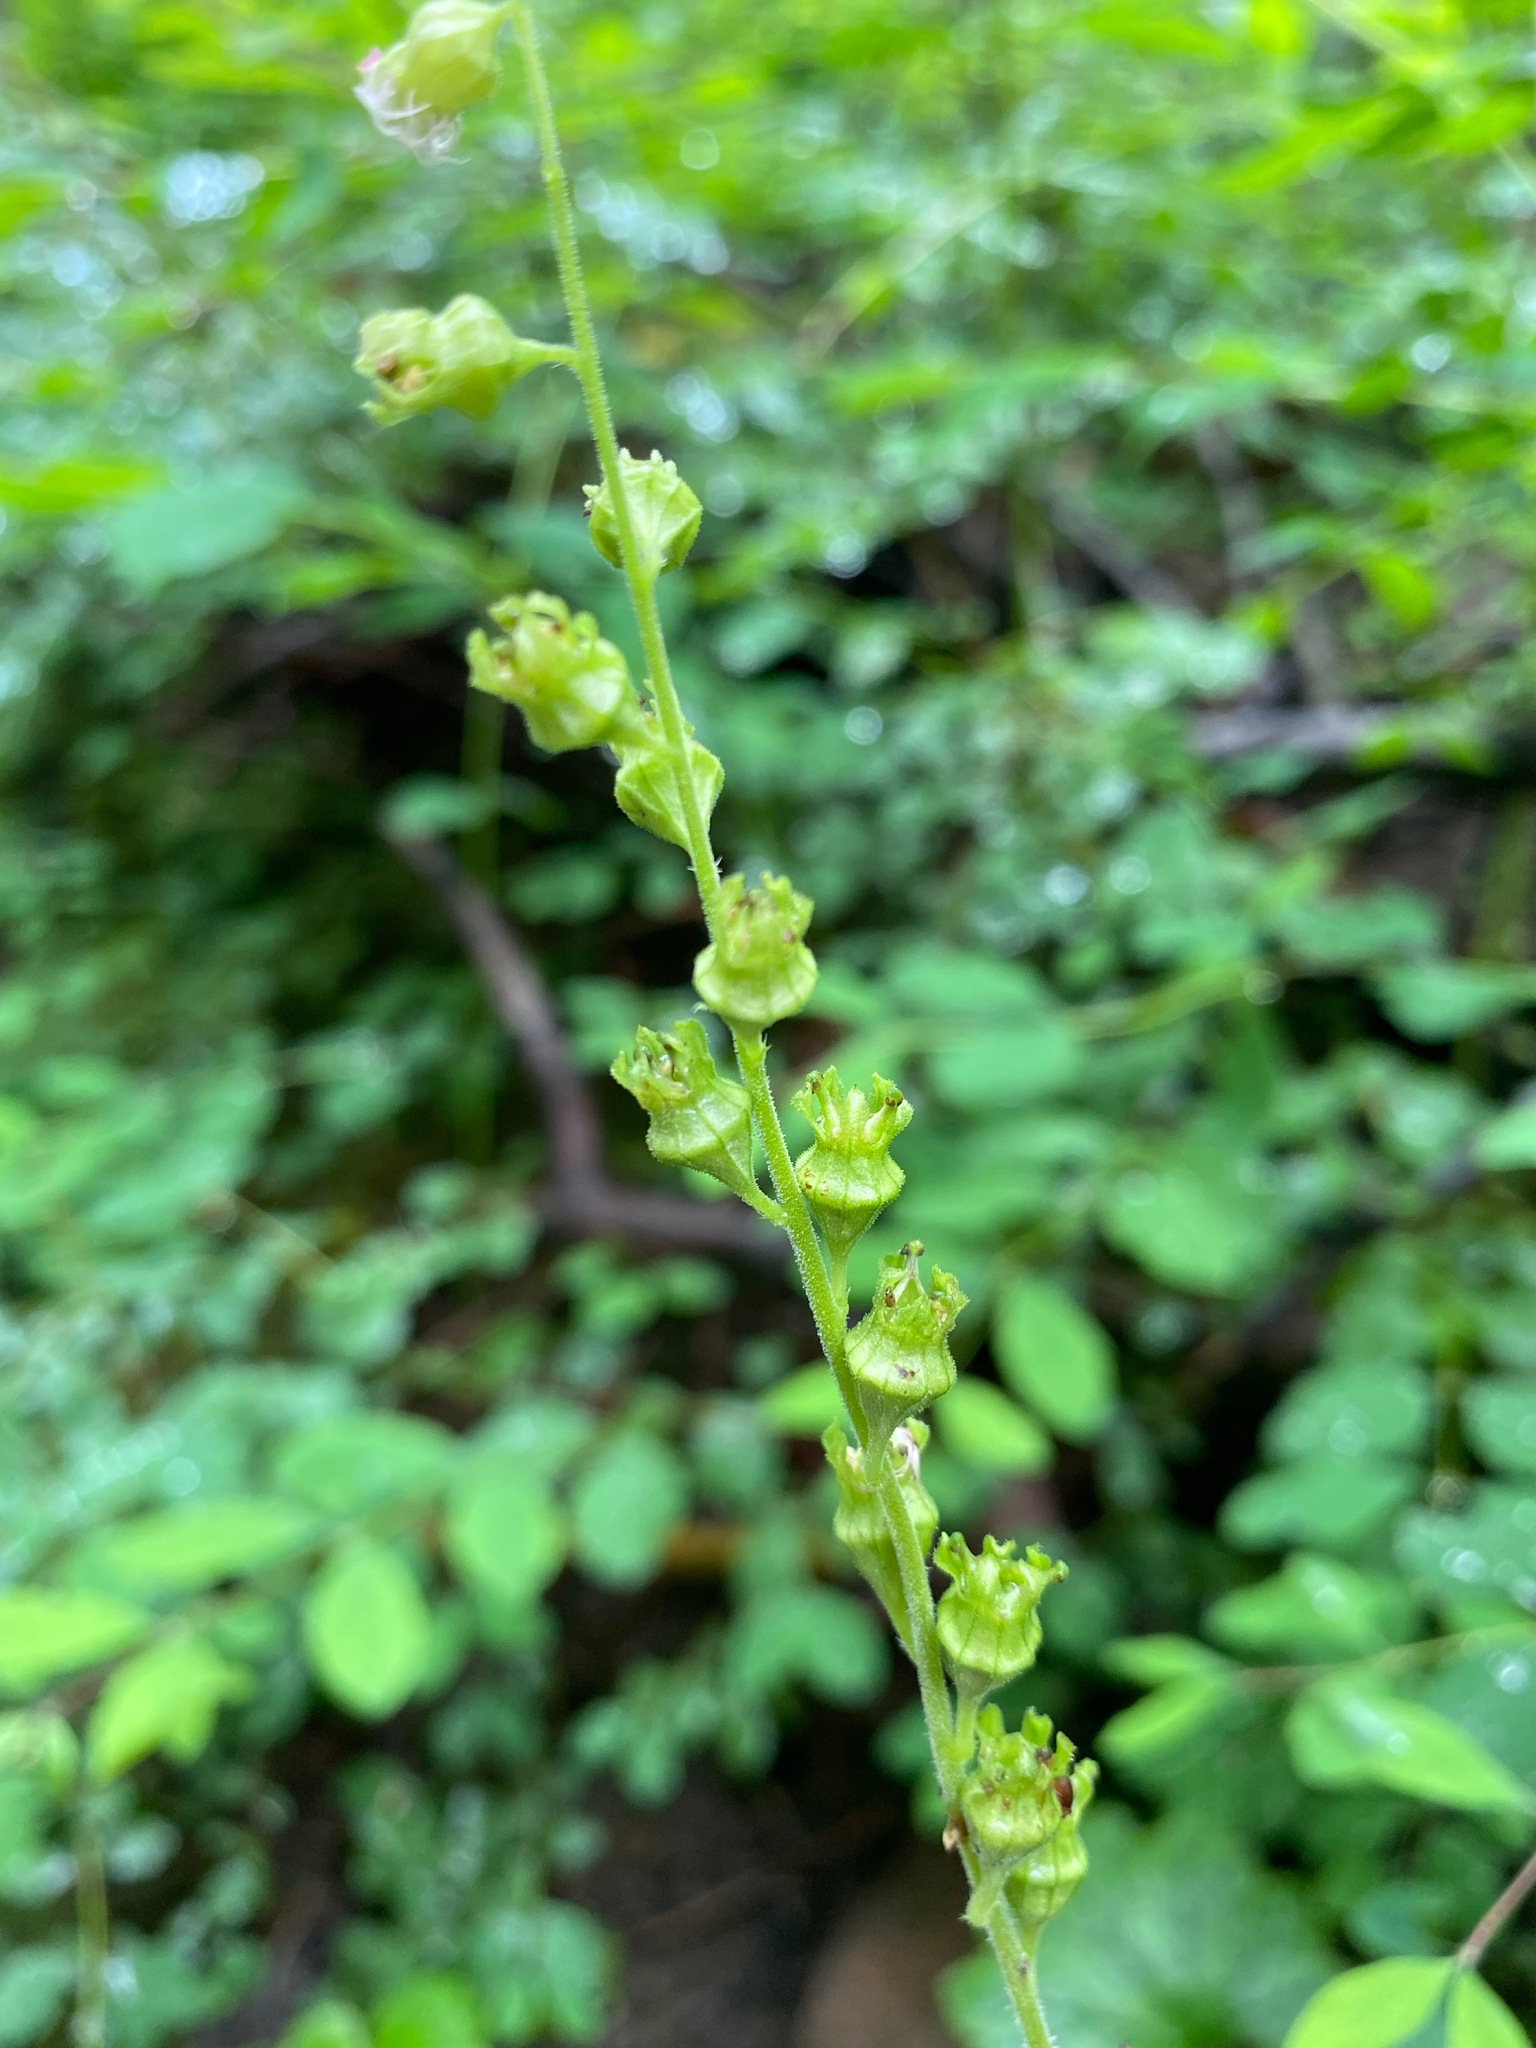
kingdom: Plantae
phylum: Tracheophyta
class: Magnoliopsida
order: Saxifragales
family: Saxifragaceae
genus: Tellima
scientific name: Tellima grandiflora
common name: Fringecups
